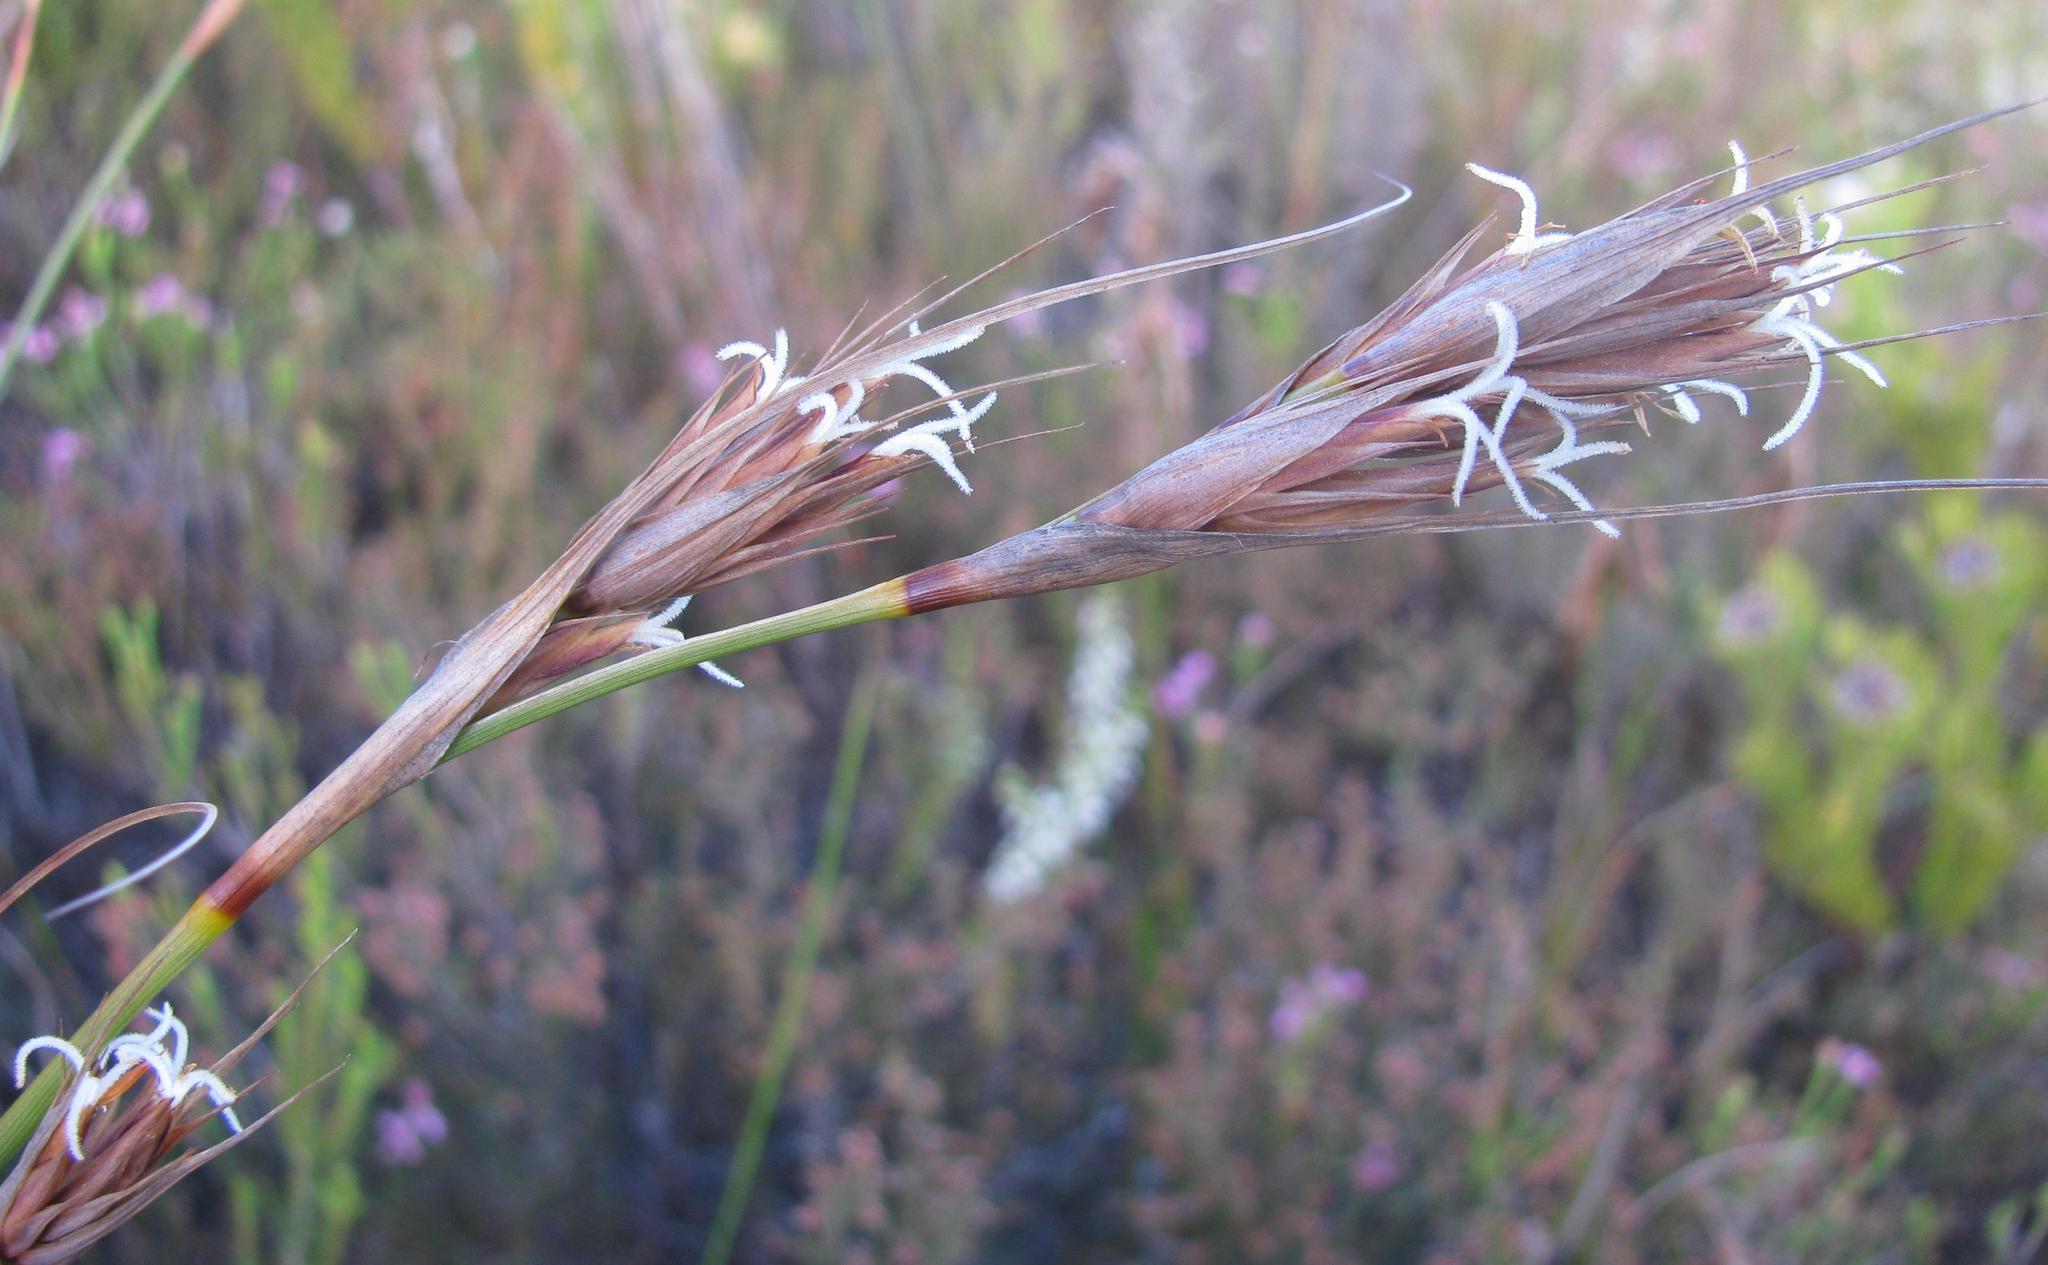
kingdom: Plantae
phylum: Tracheophyta
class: Liliopsida
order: Poales
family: Cyperaceae
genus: Tetraria
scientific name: Tetraria eximia
